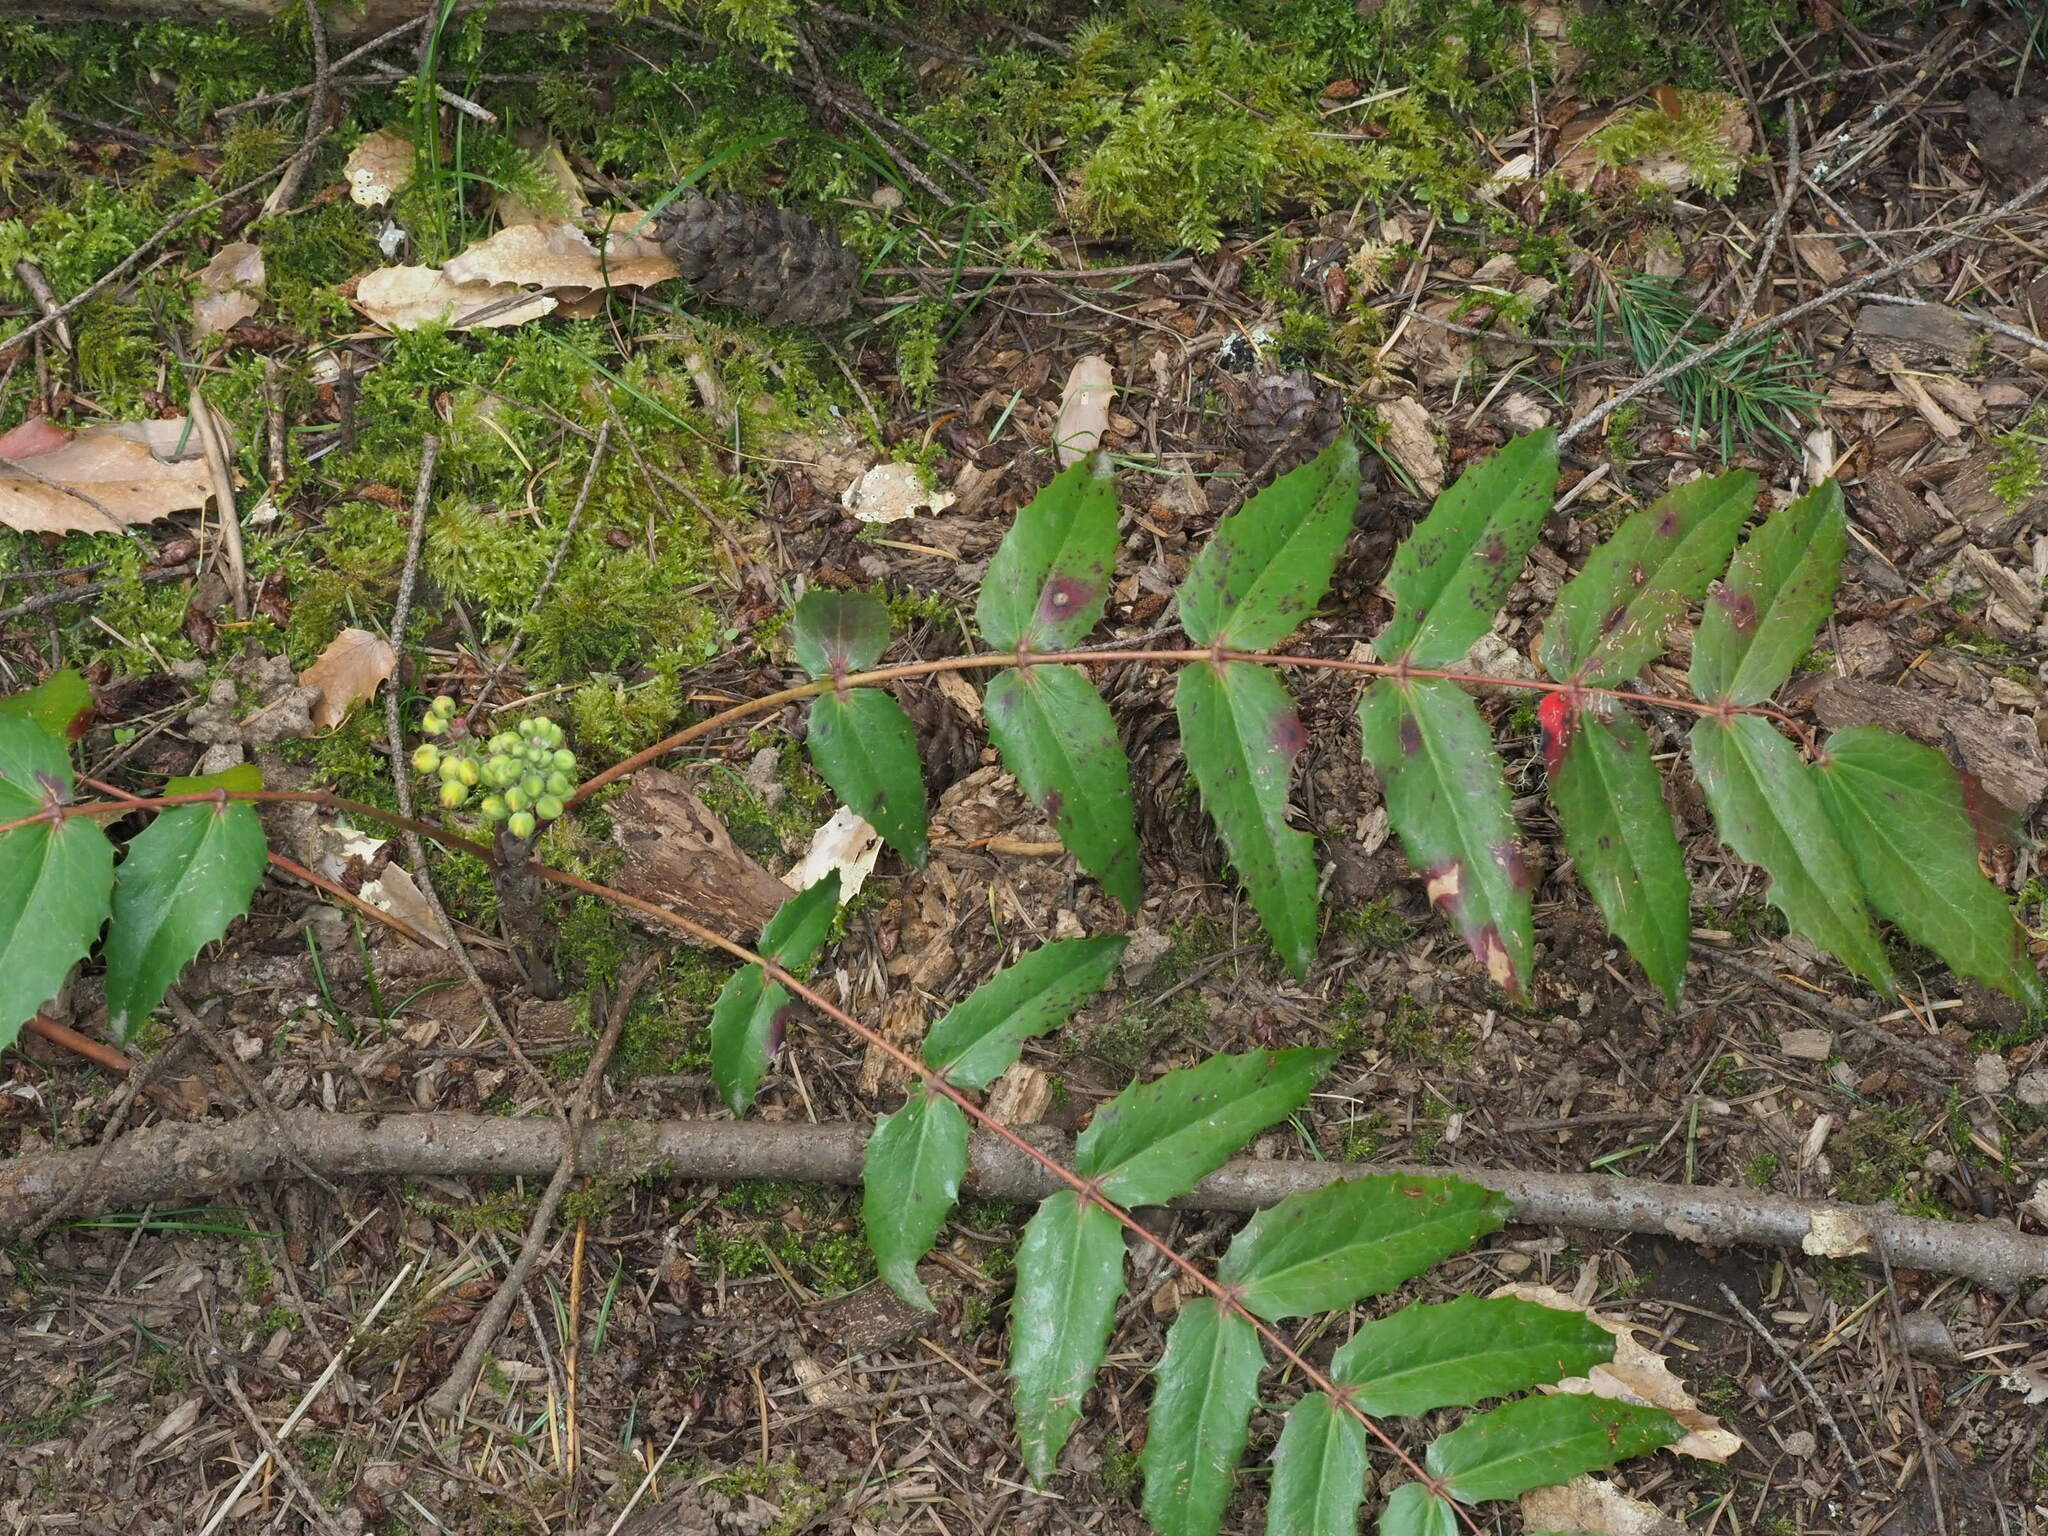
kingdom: Plantae
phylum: Tracheophyta
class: Magnoliopsida
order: Ranunculales
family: Berberidaceae
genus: Mahonia
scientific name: Mahonia nervosa
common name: Cascade oregon-grape
